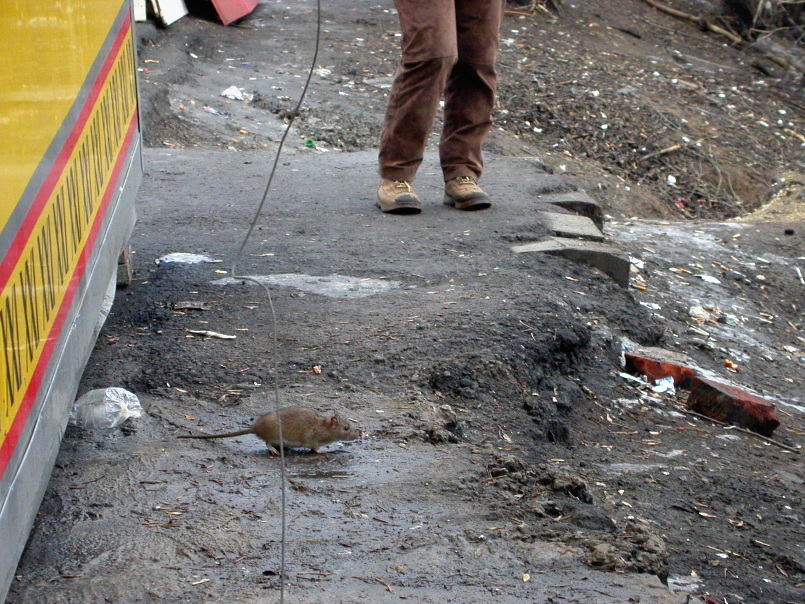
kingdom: Animalia
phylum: Chordata
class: Mammalia
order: Rodentia
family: Muridae
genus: Rattus
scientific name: Rattus norvegicus
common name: Brown rat
